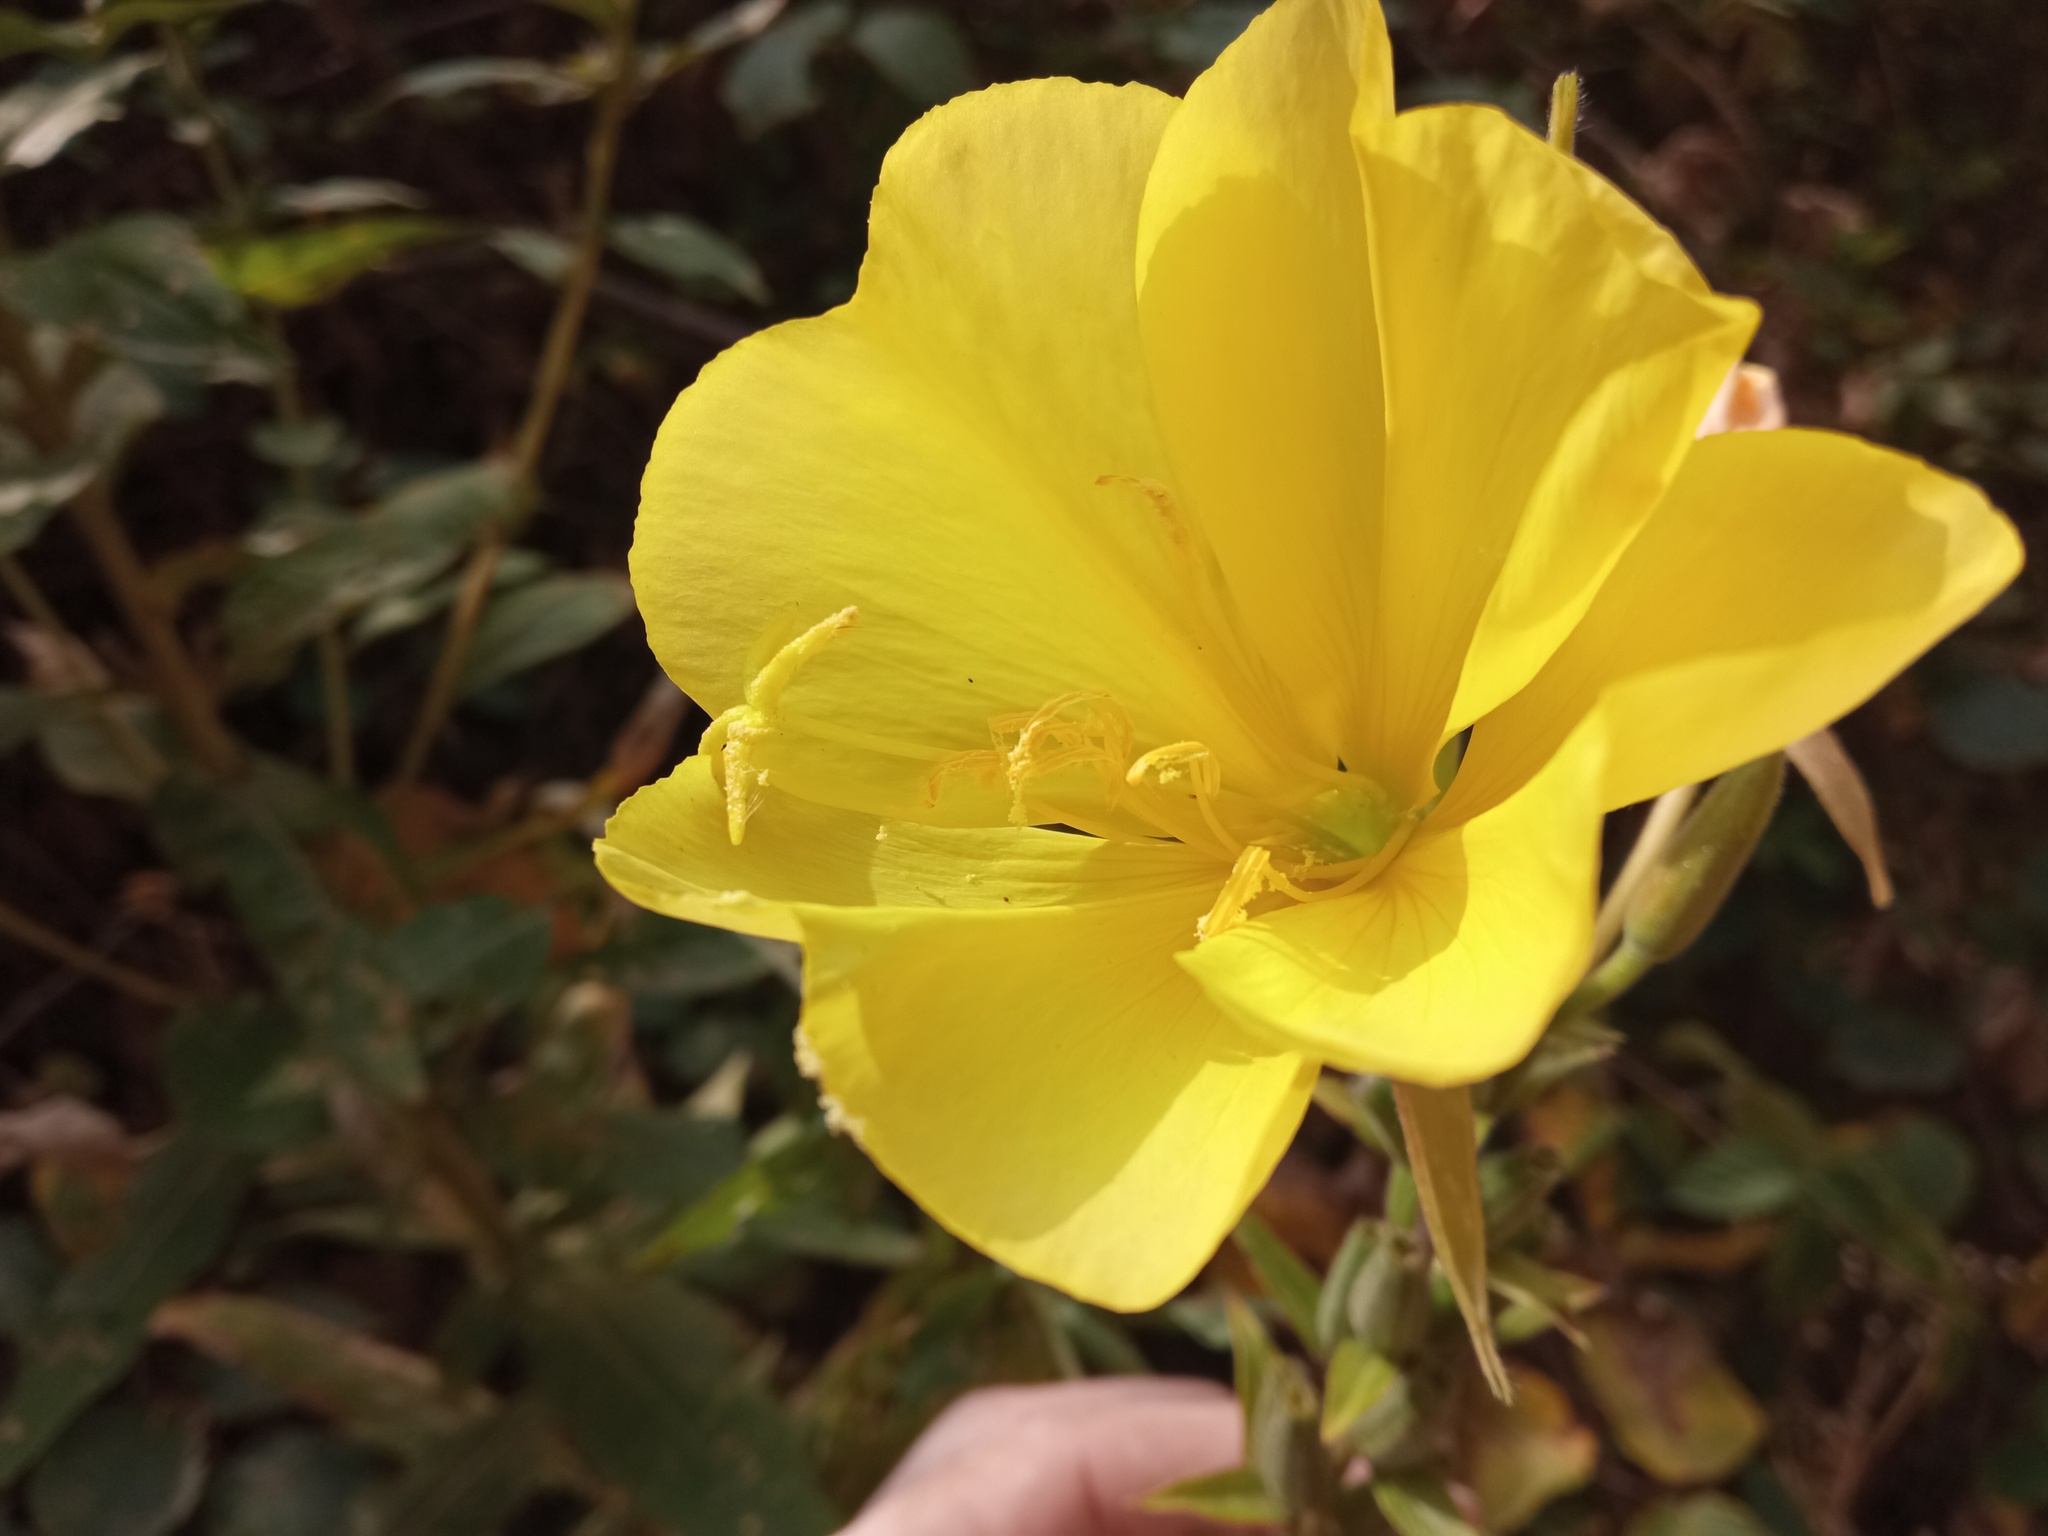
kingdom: Plantae
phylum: Tracheophyta
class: Magnoliopsida
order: Myrtales
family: Onagraceae
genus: Oenothera
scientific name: Oenothera glazioviana
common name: Large-flowered evening-primrose
